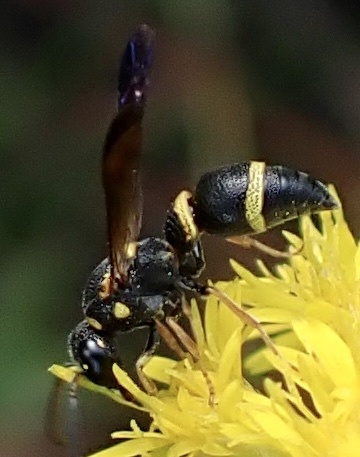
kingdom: Animalia
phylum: Arthropoda
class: Insecta
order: Hymenoptera
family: Eumenidae
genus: Parancistrocerus
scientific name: Parancistrocerus perennis
